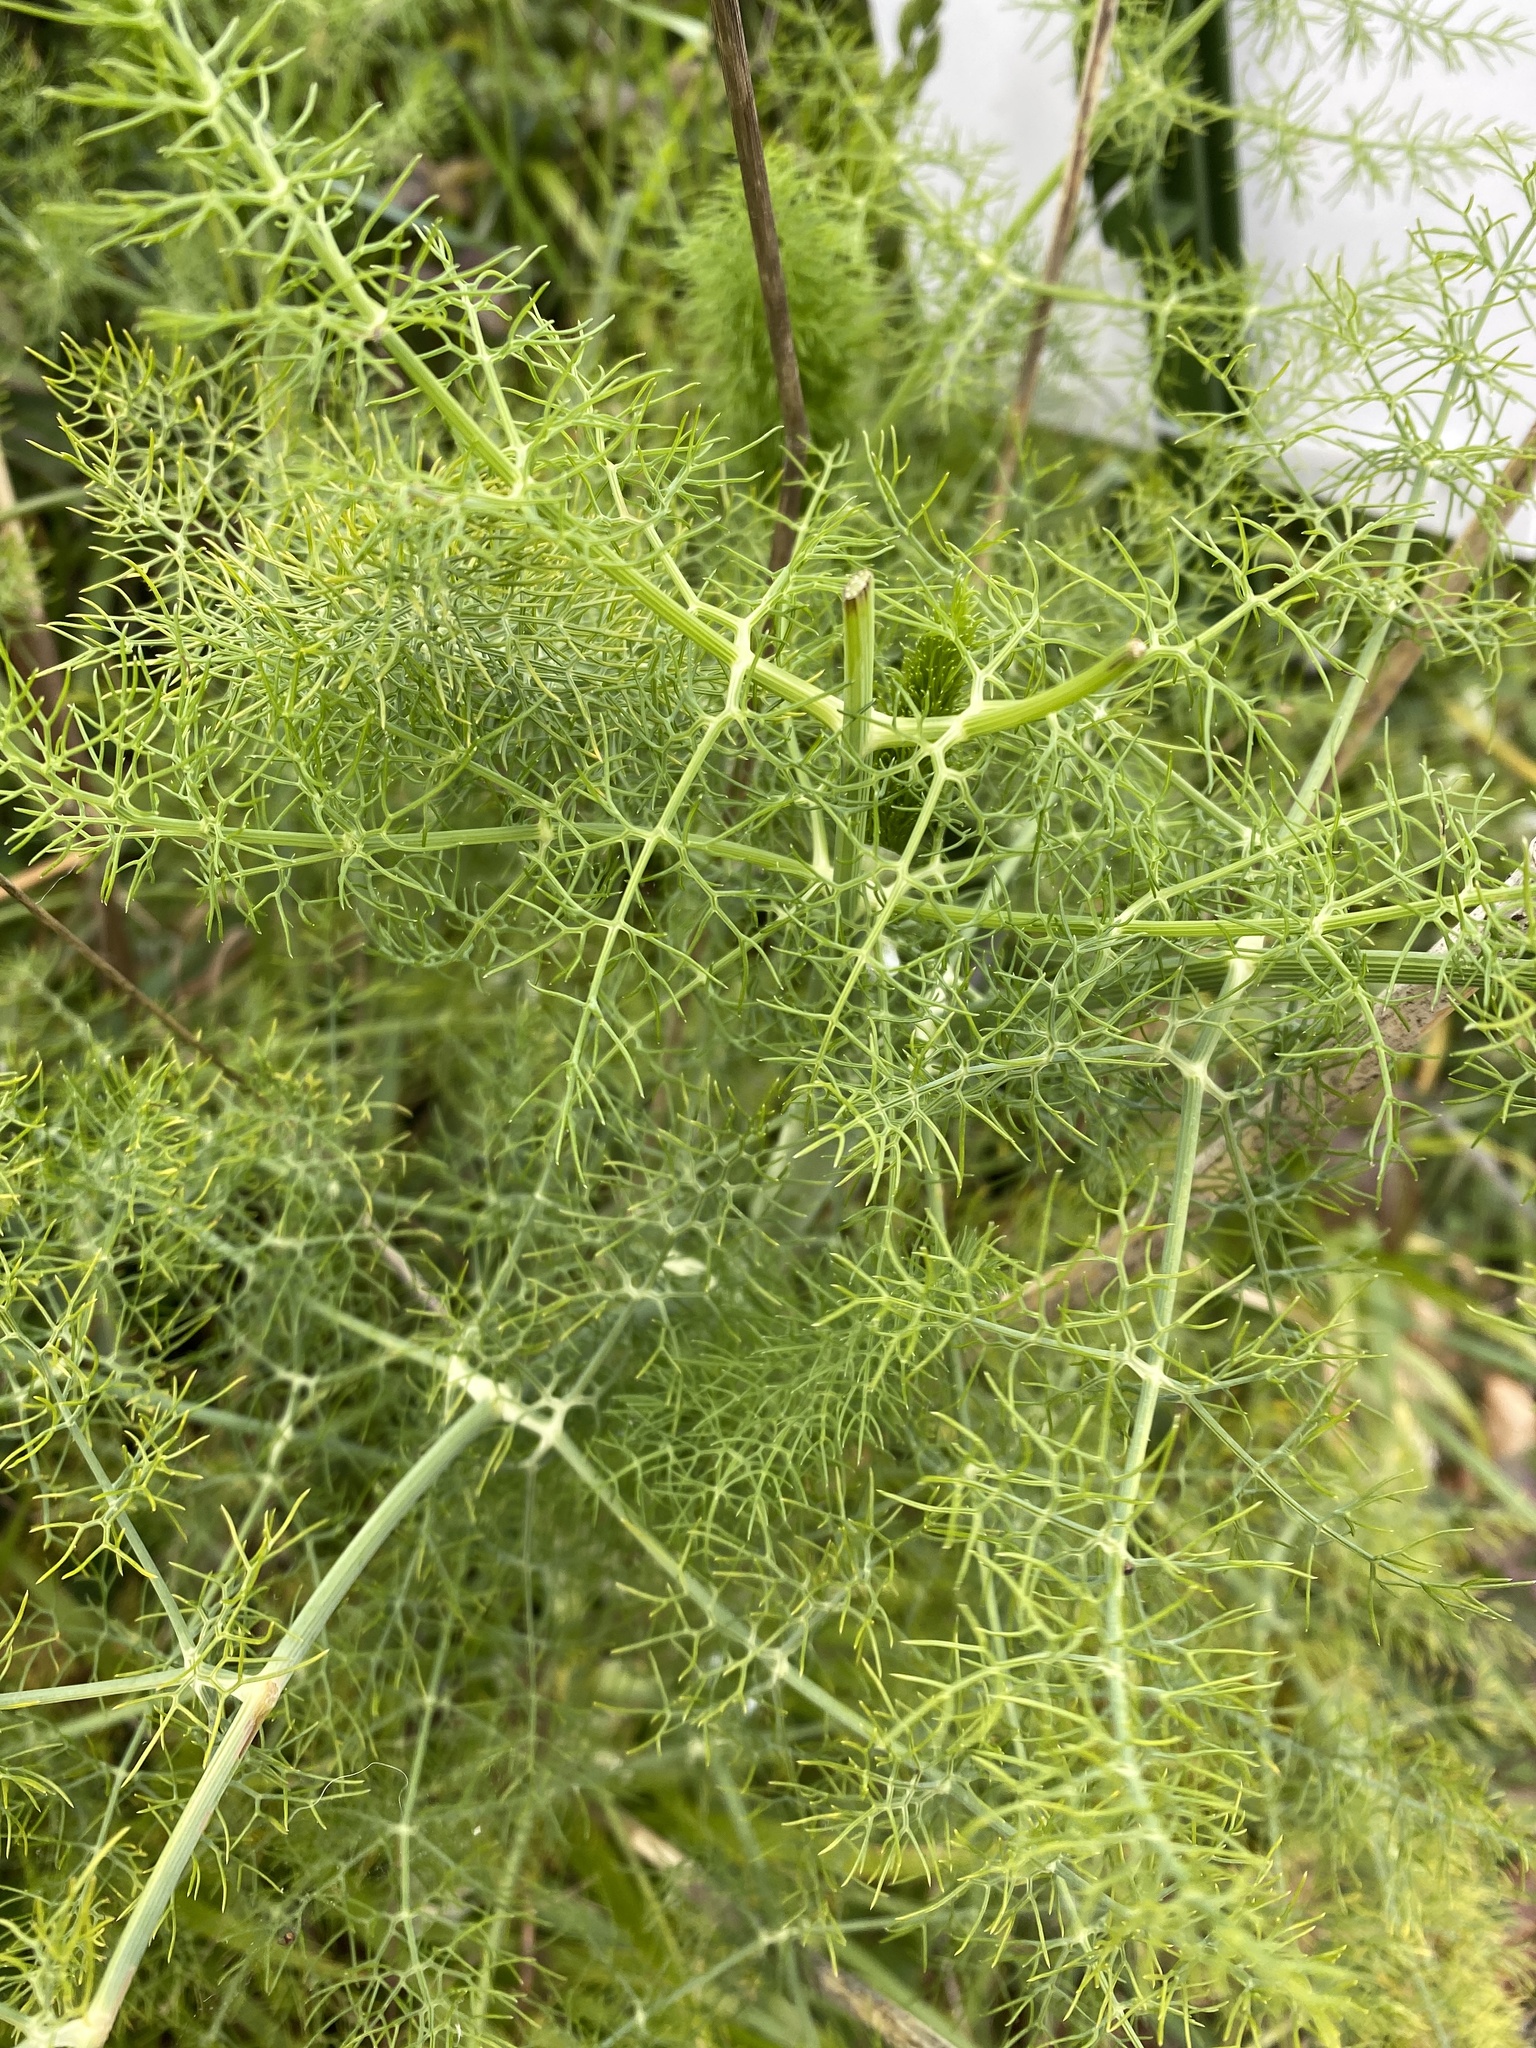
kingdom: Plantae
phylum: Tracheophyta
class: Magnoliopsida
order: Apiales
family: Apiaceae
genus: Foeniculum
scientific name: Foeniculum vulgare
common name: Fennel
